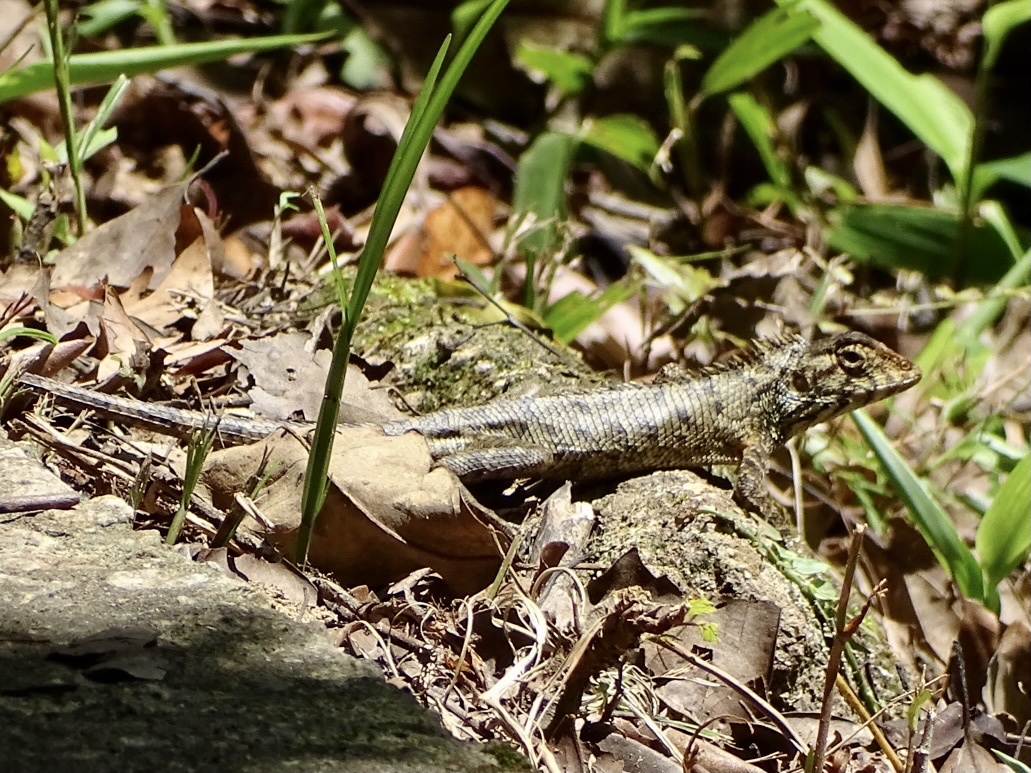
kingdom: Animalia
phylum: Chordata
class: Squamata
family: Agamidae
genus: Calotes
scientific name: Calotes versicolor
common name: Oriental garden lizard
